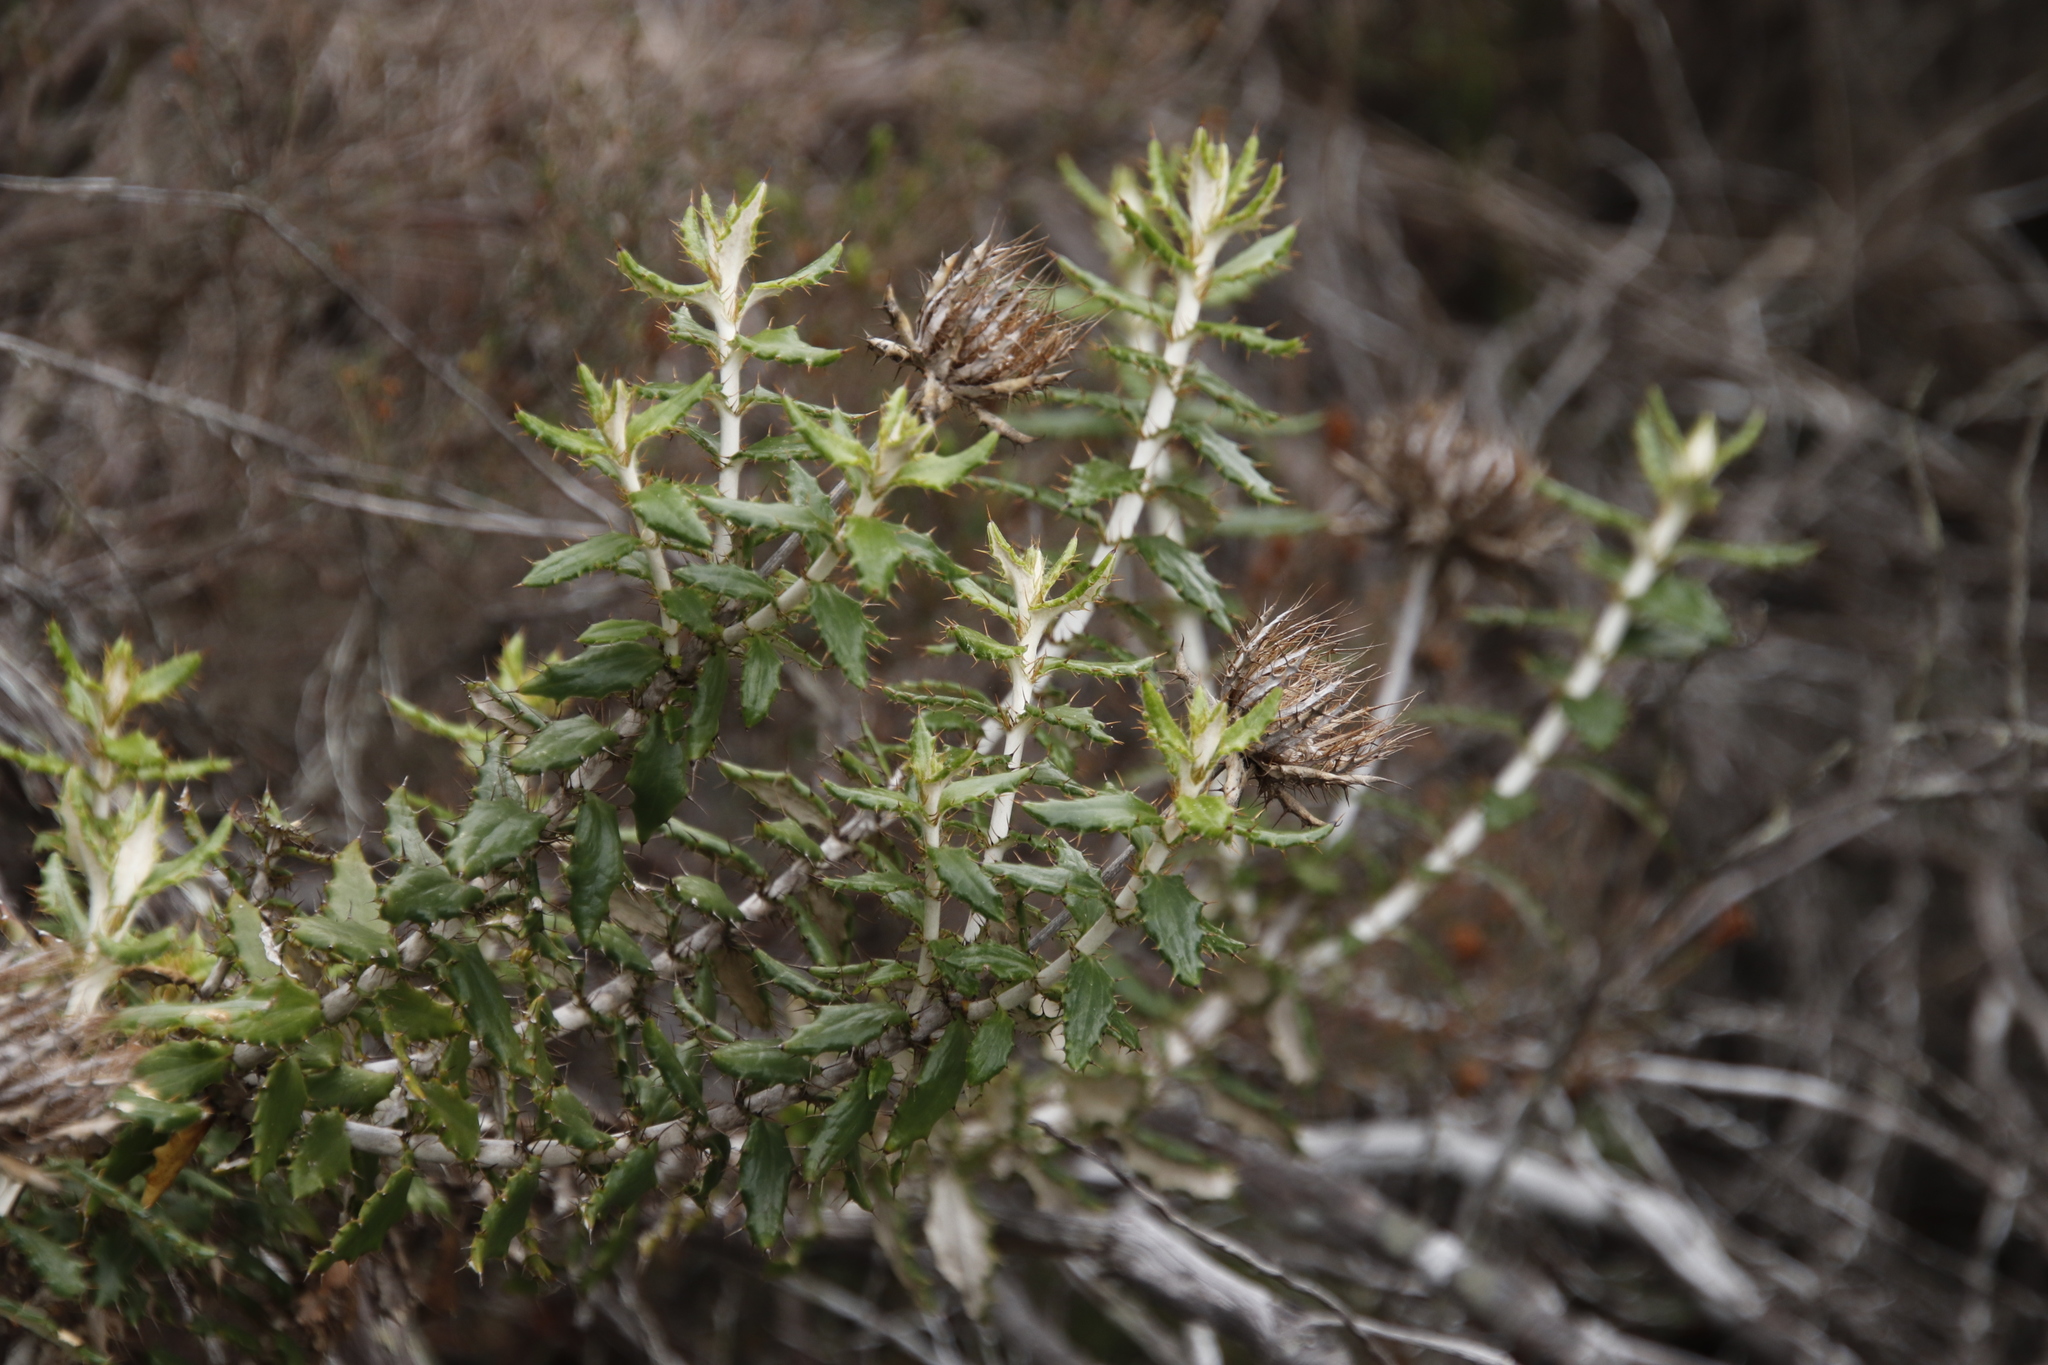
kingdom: Plantae
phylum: Tracheophyta
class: Magnoliopsida
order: Asterales
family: Asteraceae
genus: Berkheya
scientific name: Berkheya barbata
